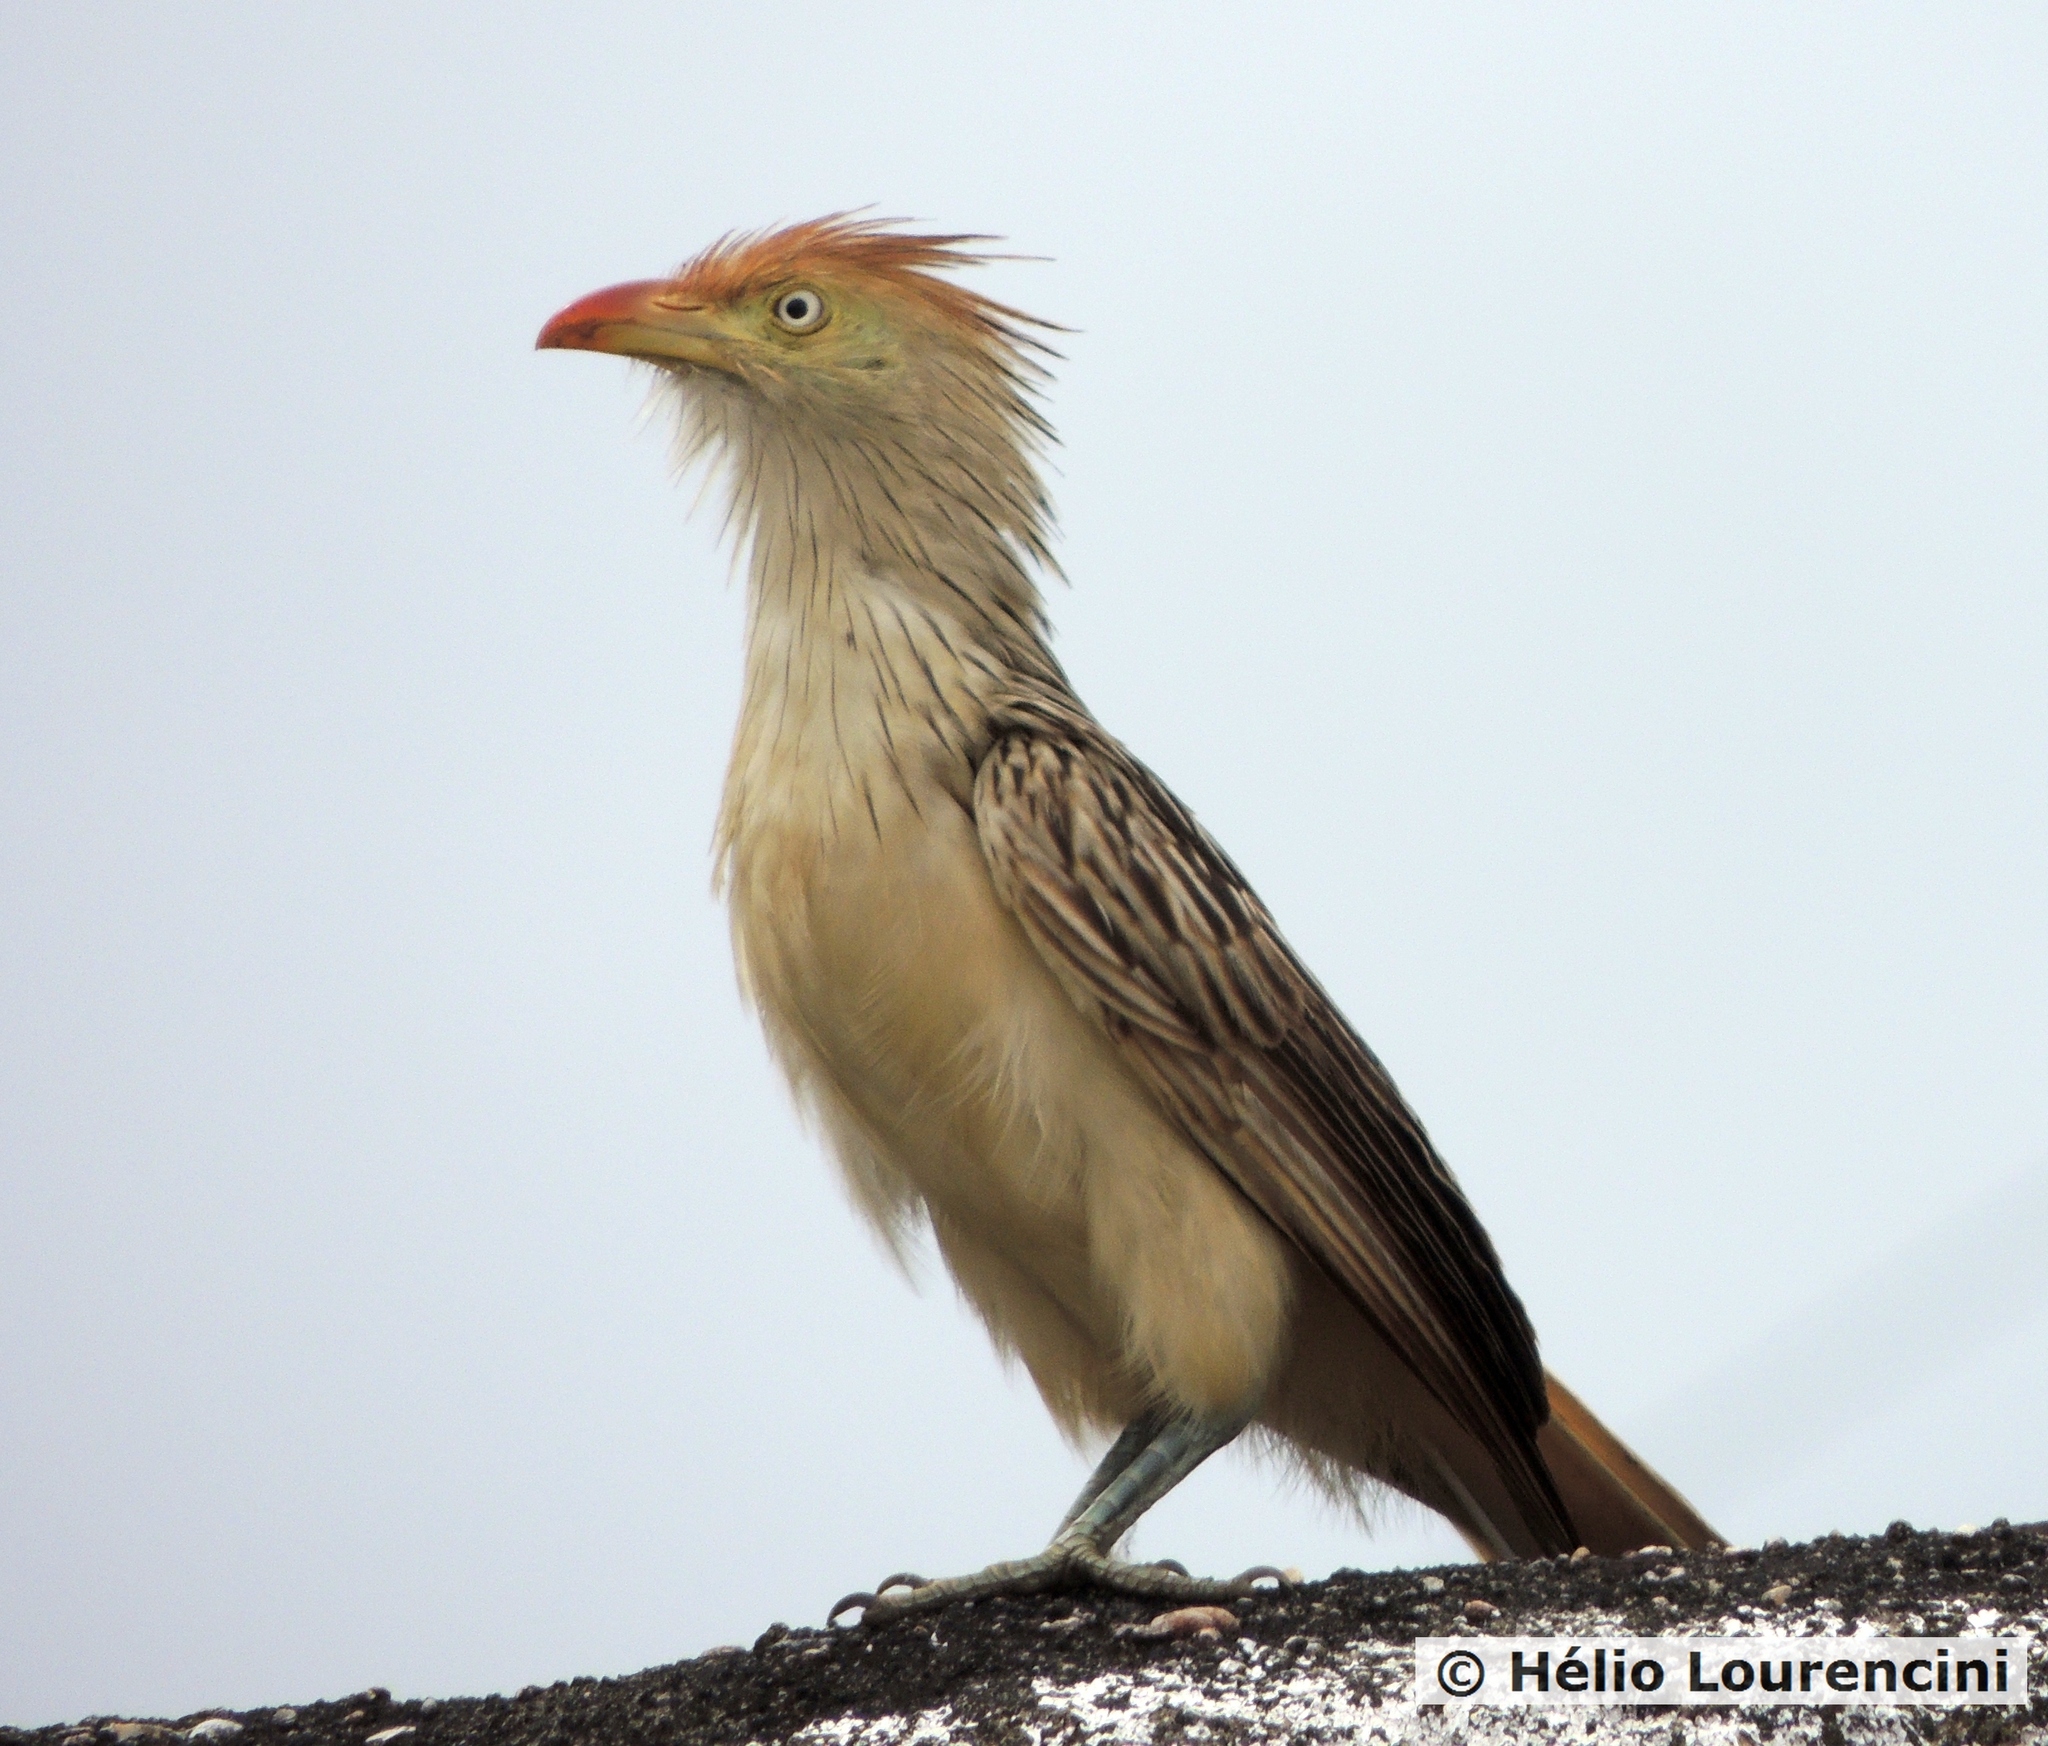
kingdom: Animalia
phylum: Chordata
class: Aves
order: Cuculiformes
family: Cuculidae
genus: Guira
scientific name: Guira guira
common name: Guira cuckoo
